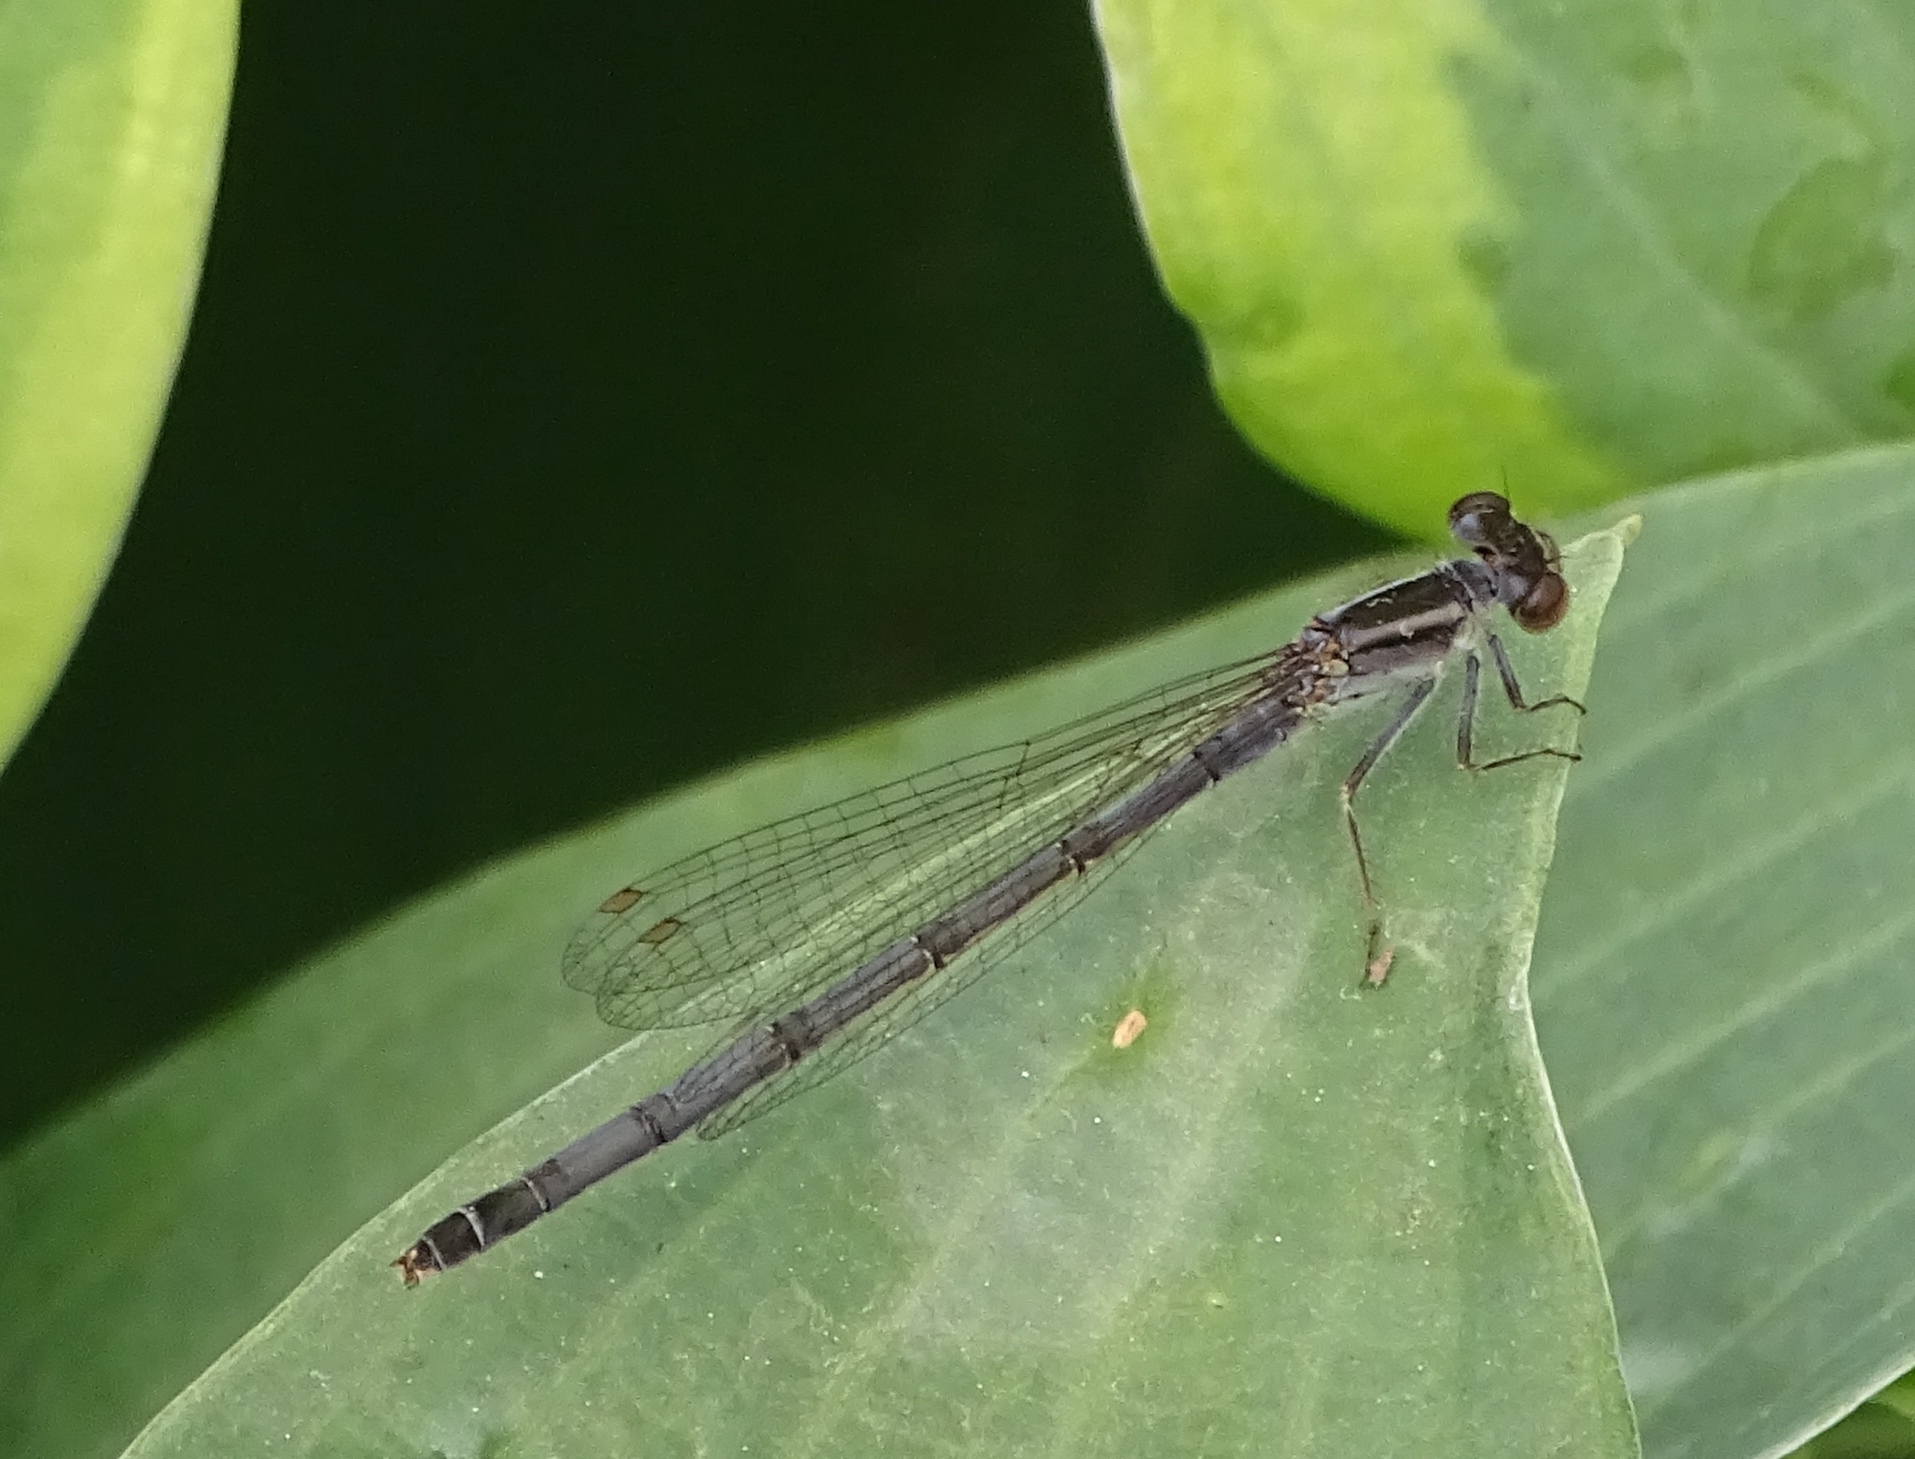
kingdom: Animalia
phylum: Arthropoda
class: Insecta
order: Odonata
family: Coenagrionidae
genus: Ischnura
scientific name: Ischnura verticalis
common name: Eastern forktail
